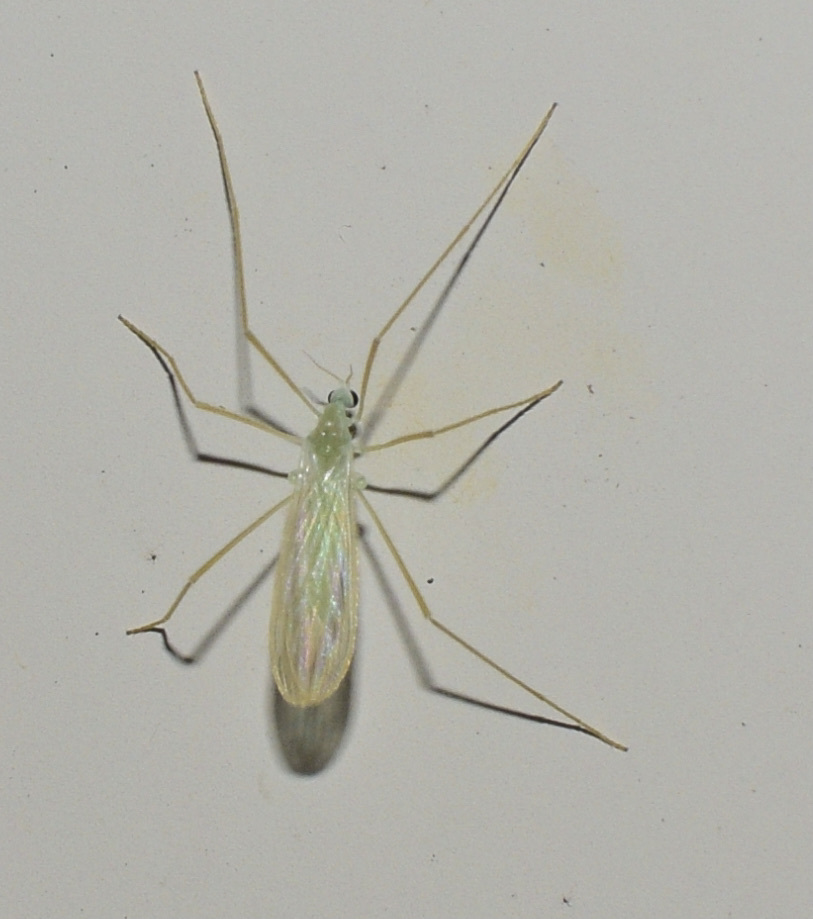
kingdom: Animalia
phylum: Arthropoda
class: Insecta
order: Diptera
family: Limoniidae
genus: Erioptera
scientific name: Erioptera
